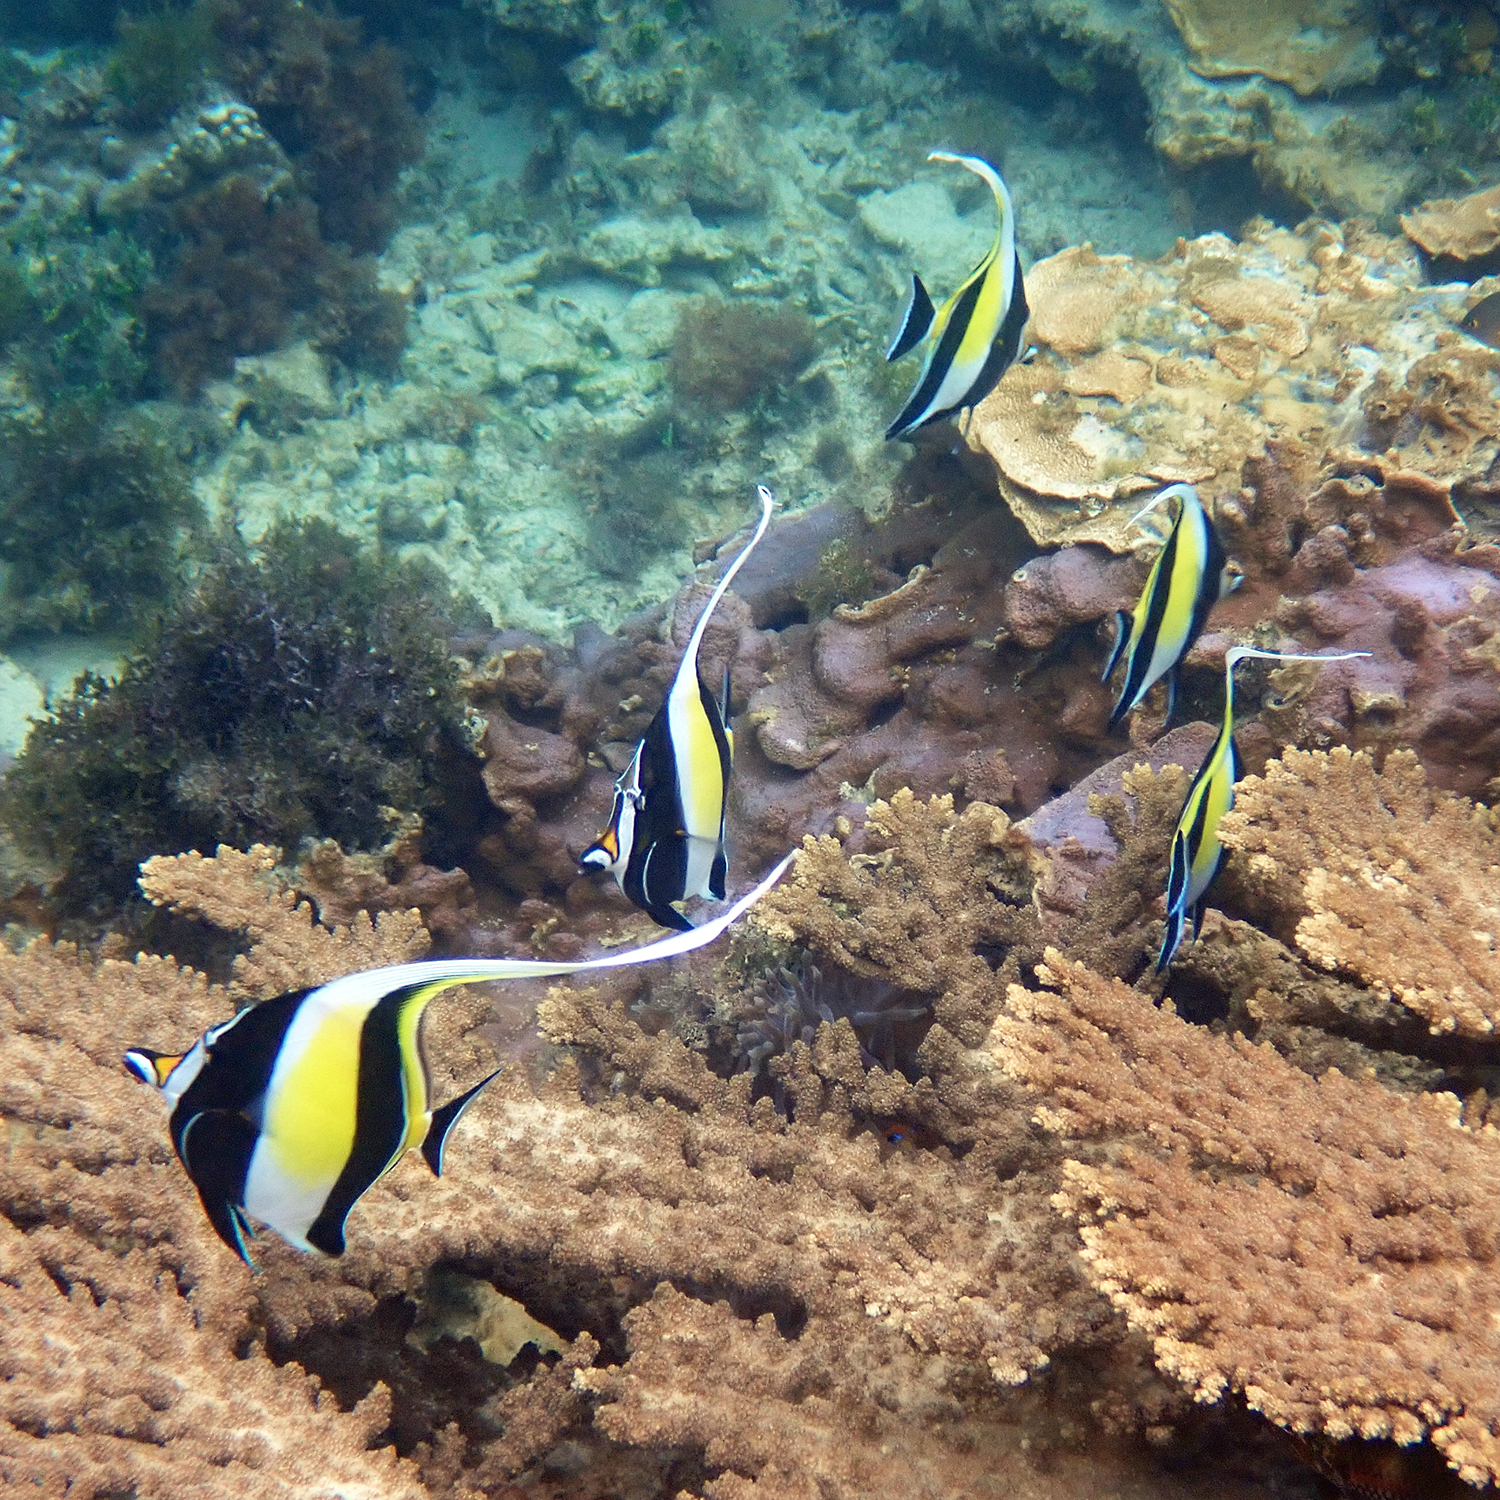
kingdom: Animalia
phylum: Chordata
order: Perciformes
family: Zanclidae
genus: Zanclus
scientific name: Zanclus cornutus
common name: Moorish idol
